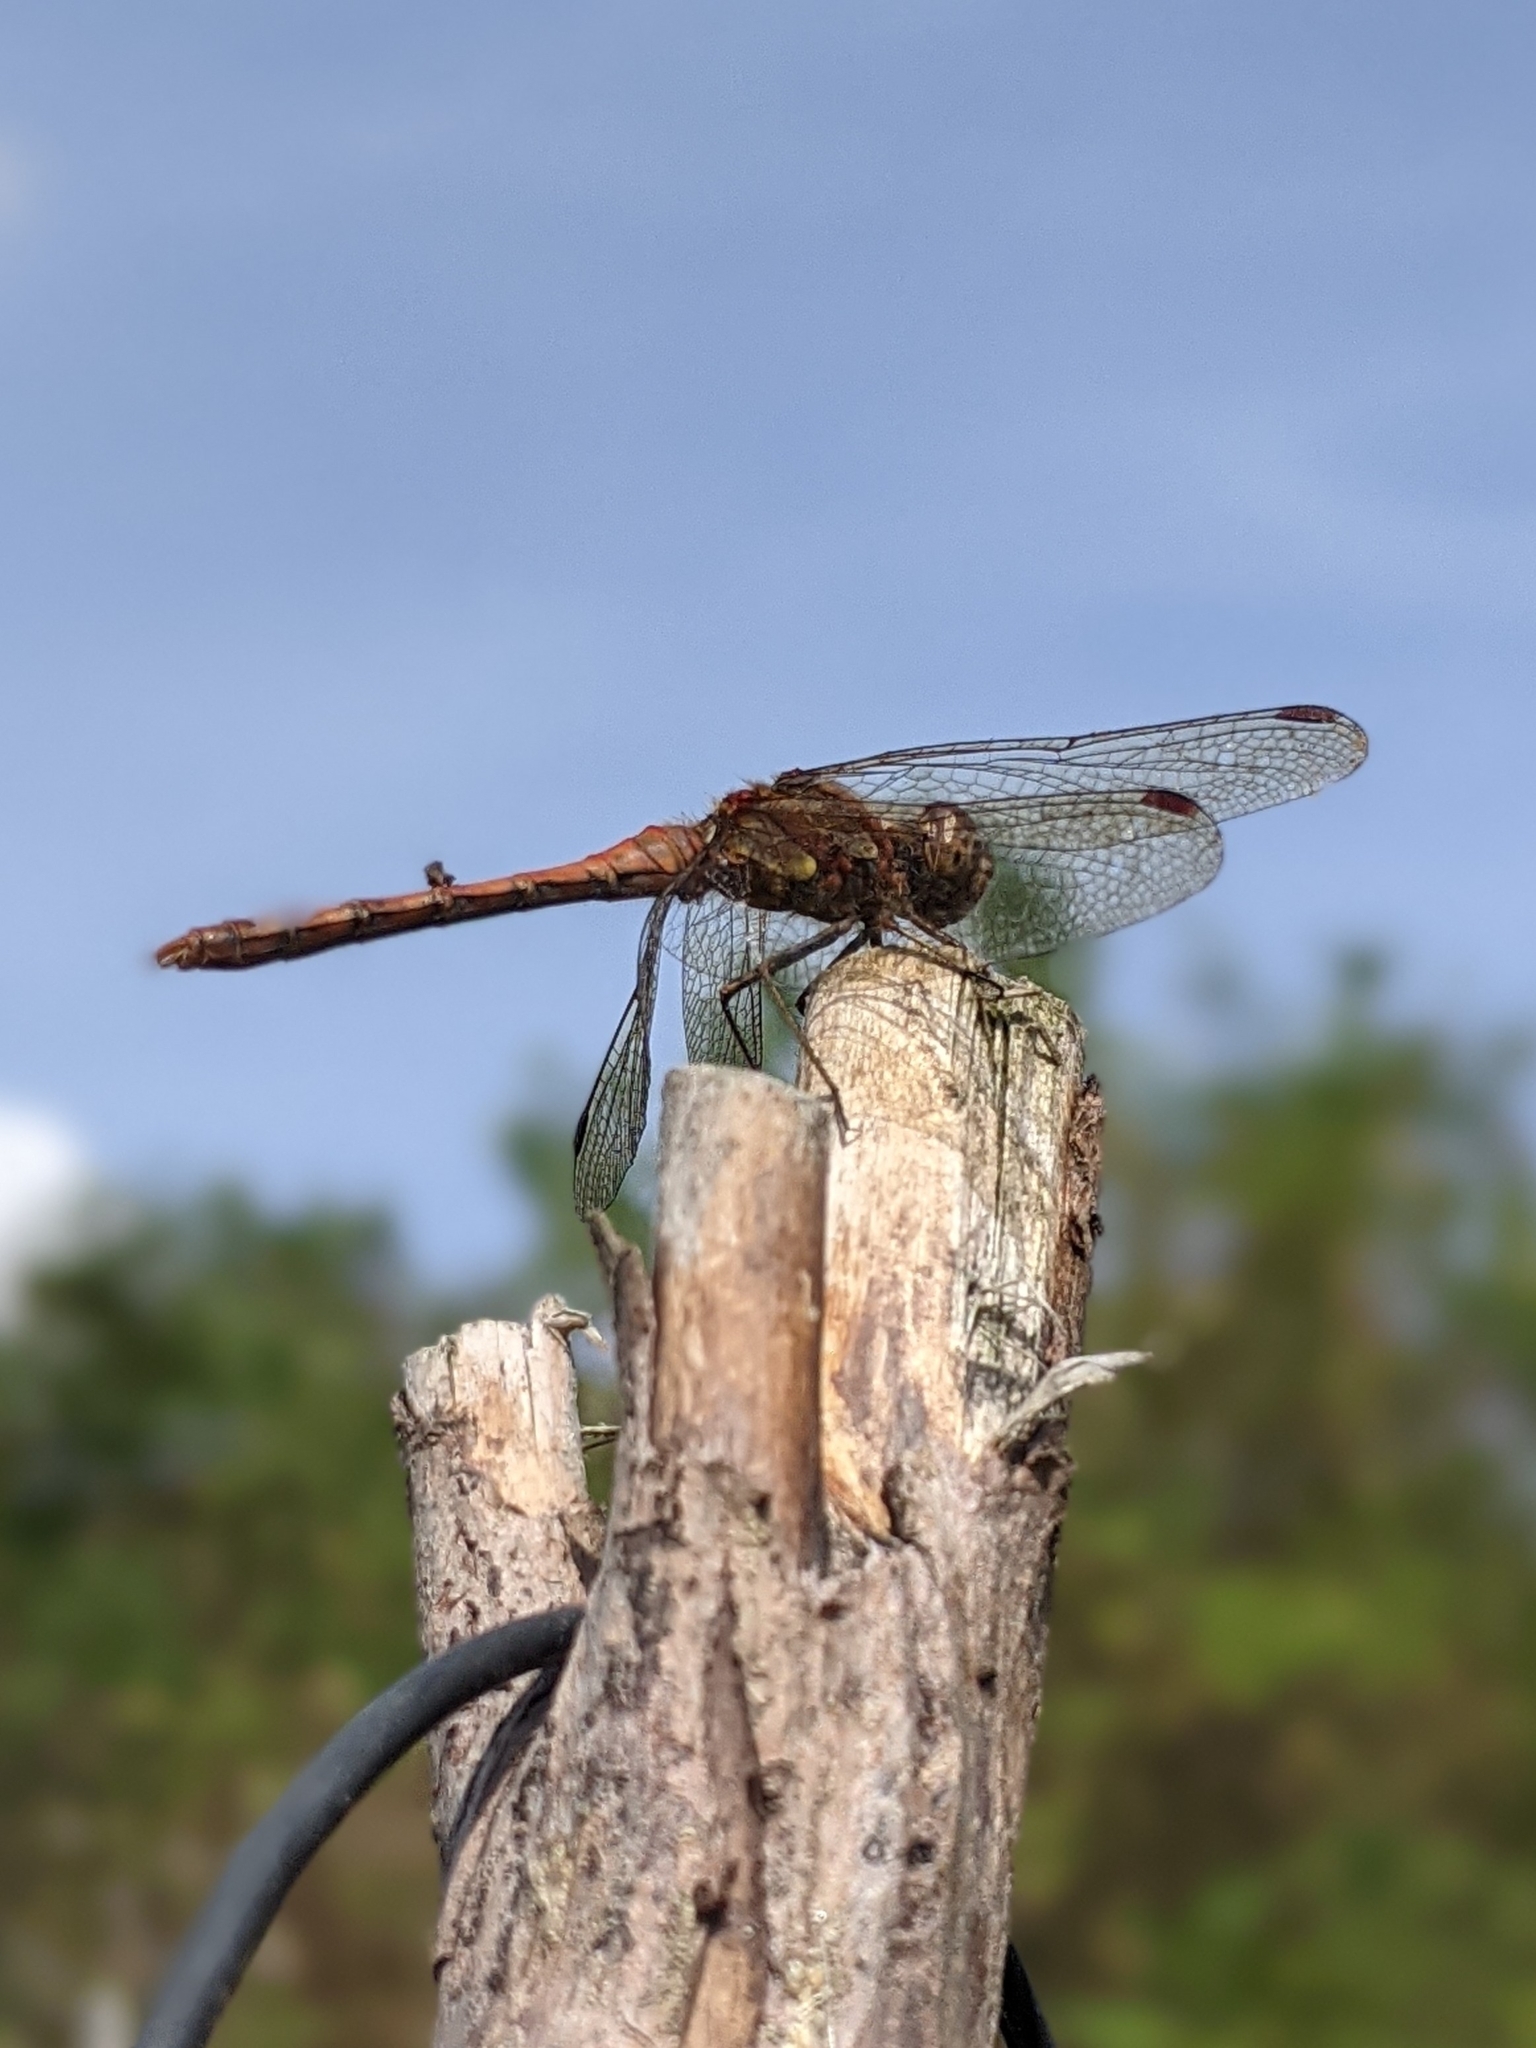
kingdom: Animalia
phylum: Arthropoda
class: Insecta
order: Odonata
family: Libellulidae
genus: Sympetrum
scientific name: Sympetrum striolatum
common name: Common darter
